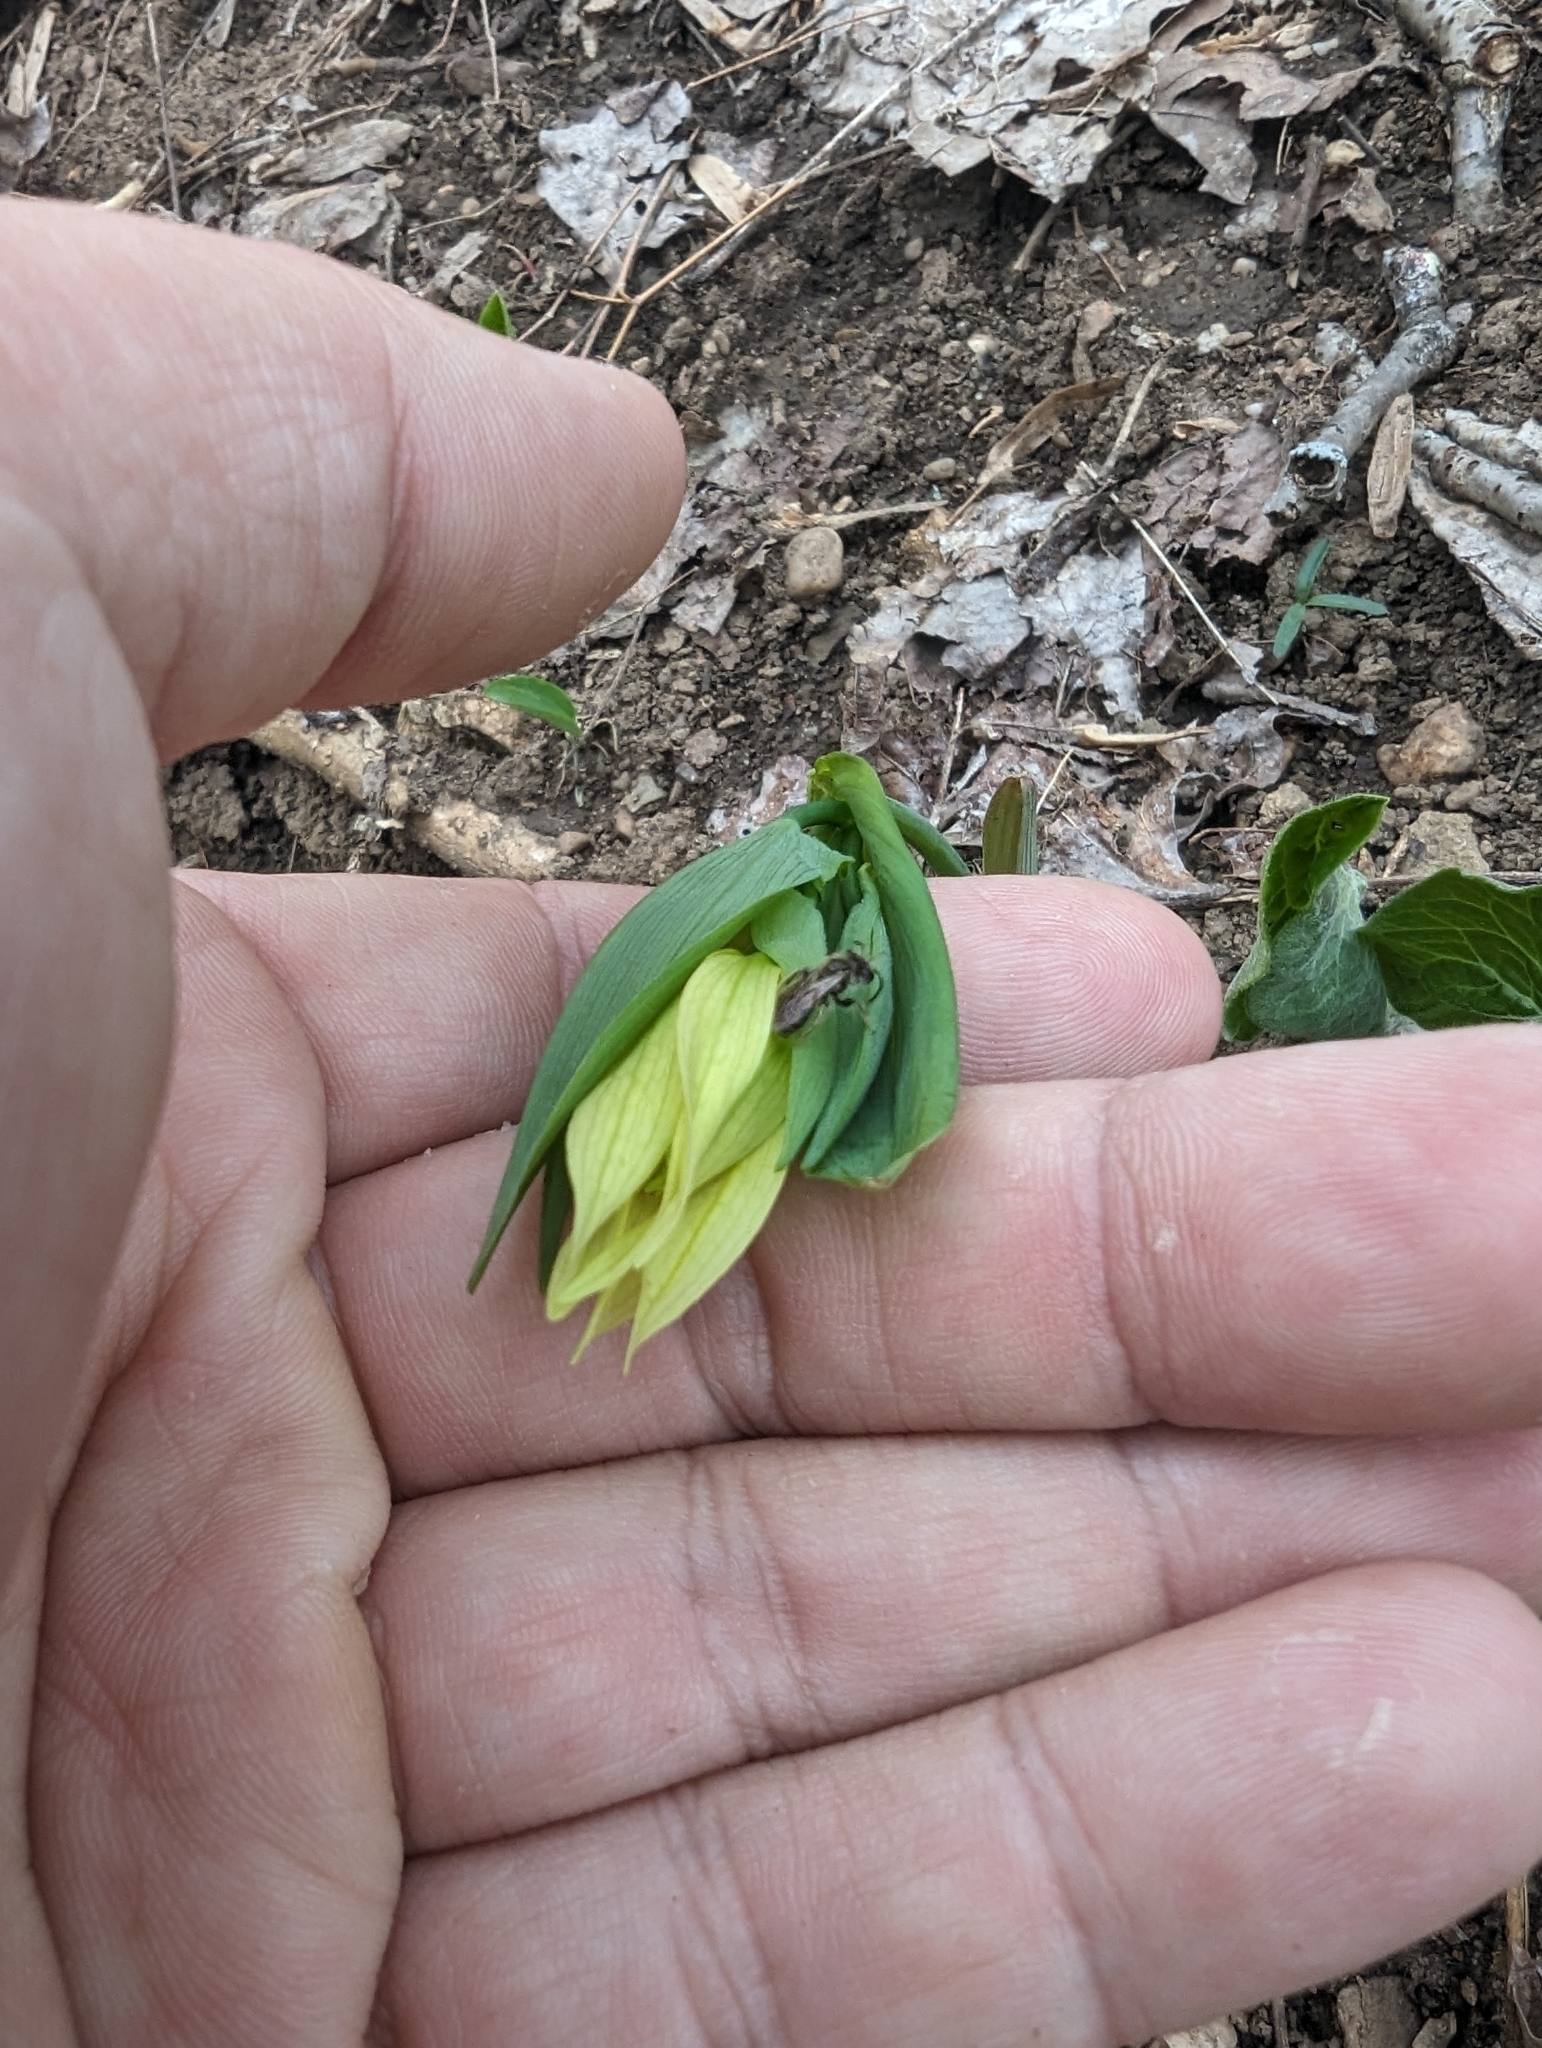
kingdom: Plantae
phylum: Tracheophyta
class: Liliopsida
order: Liliales
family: Colchicaceae
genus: Uvularia
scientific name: Uvularia grandiflora
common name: Bellwort
